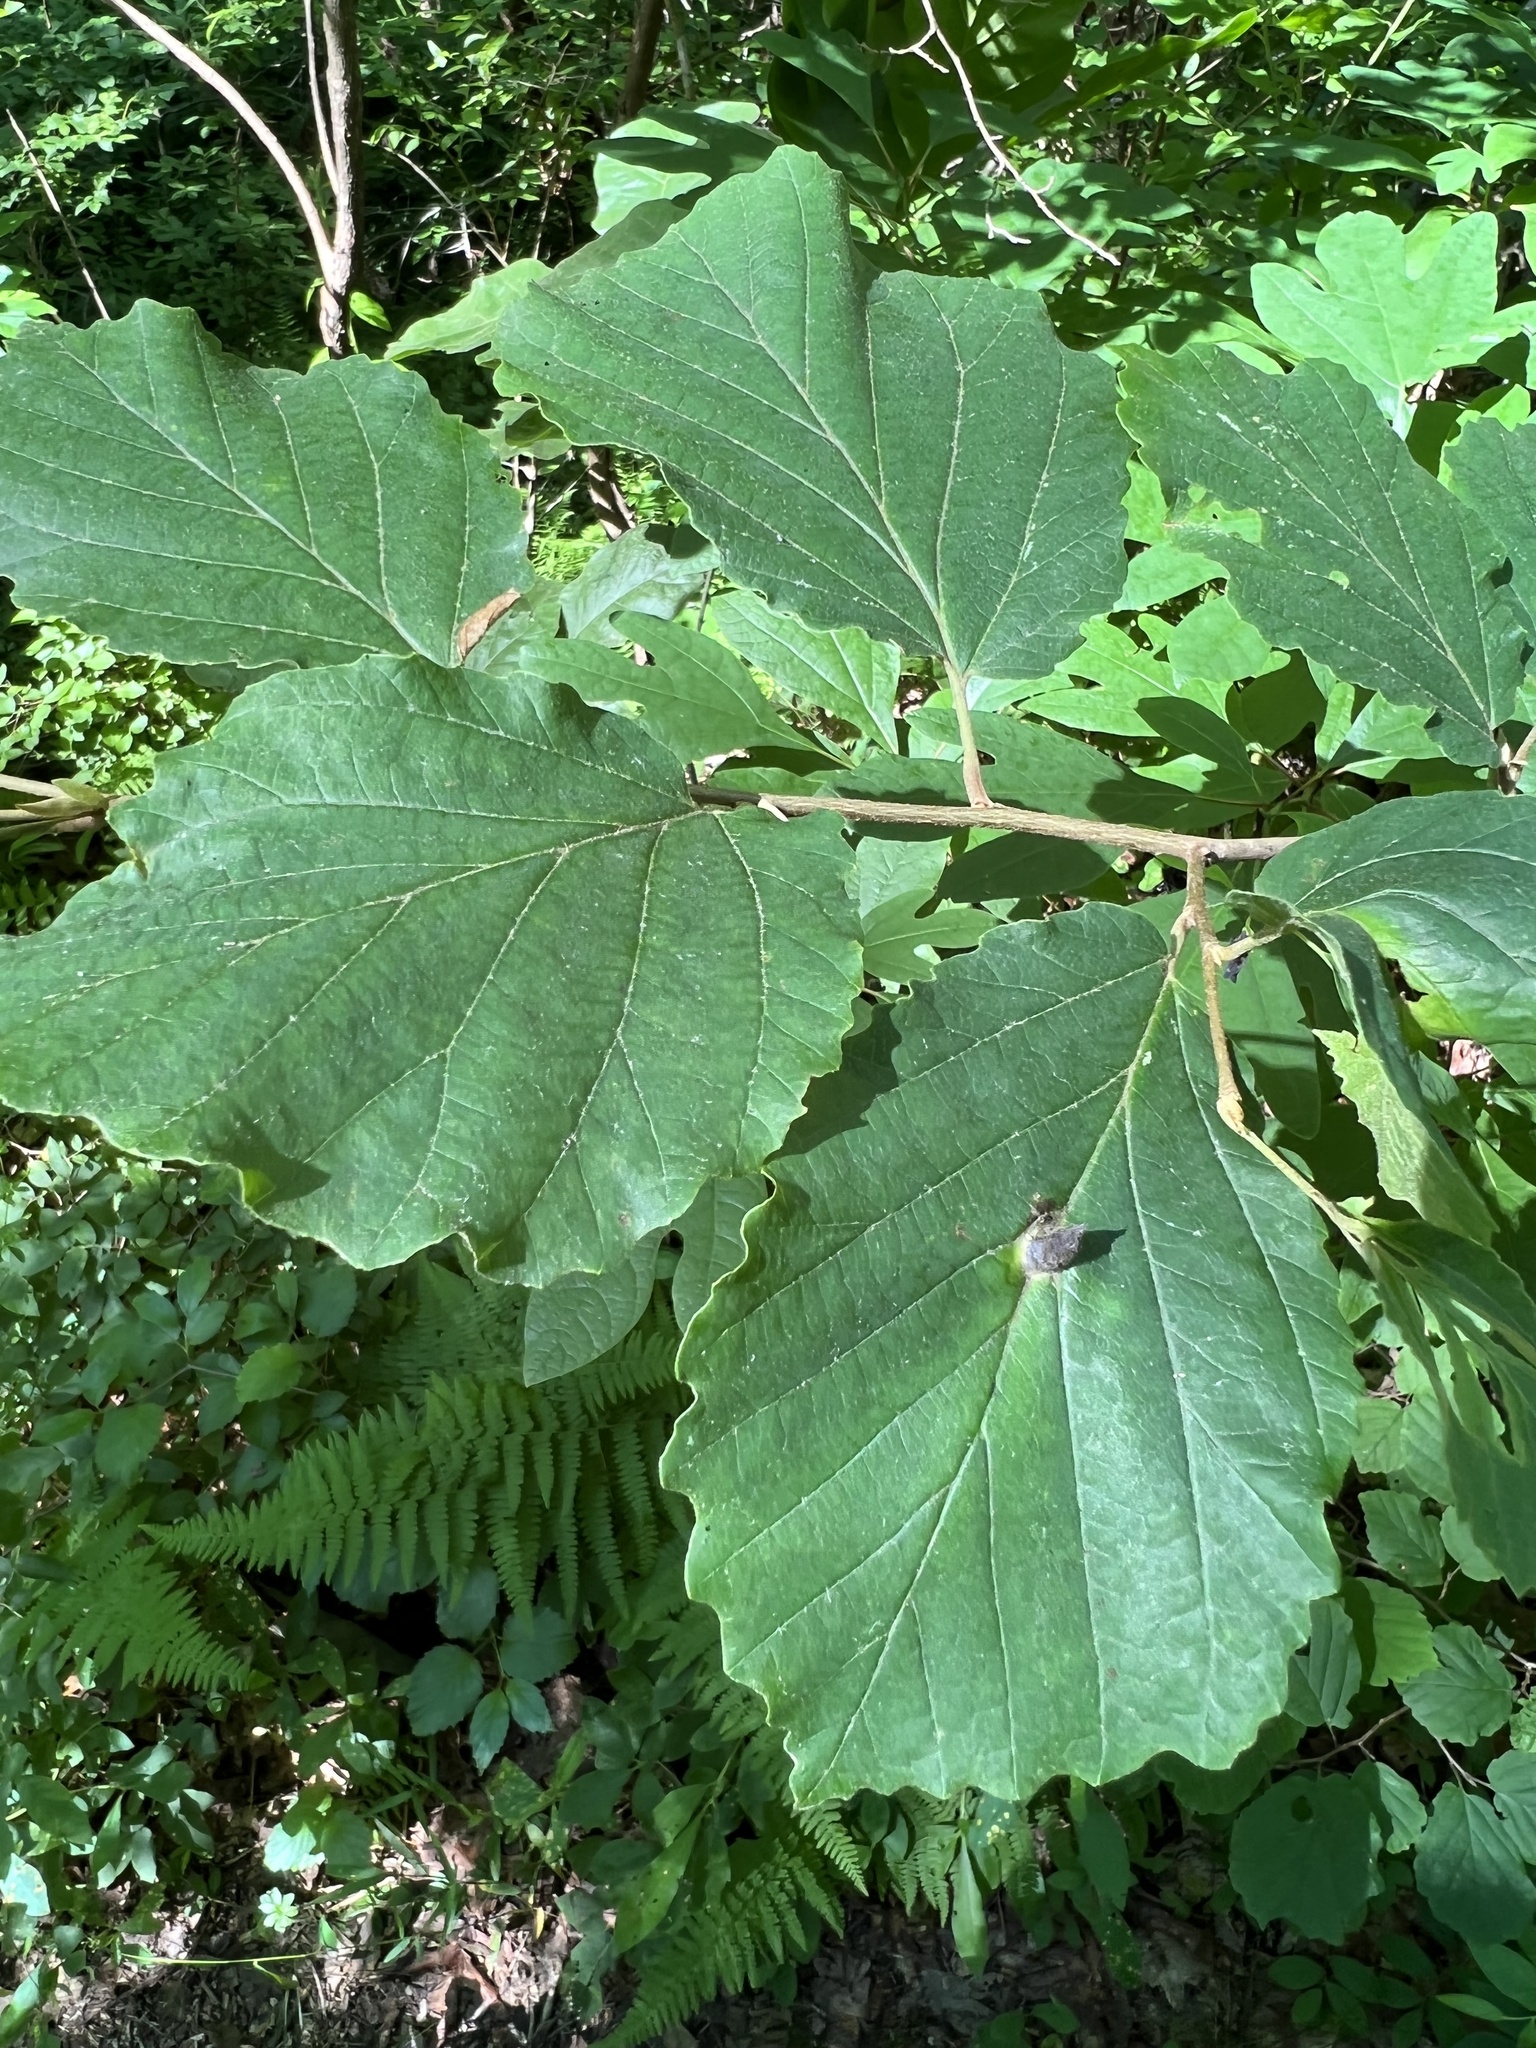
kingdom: Animalia
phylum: Arthropoda
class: Insecta
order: Hemiptera
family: Aphididae
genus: Hormaphis
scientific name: Hormaphis hamamelidis
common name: Witch-hazel cone gall aphid
